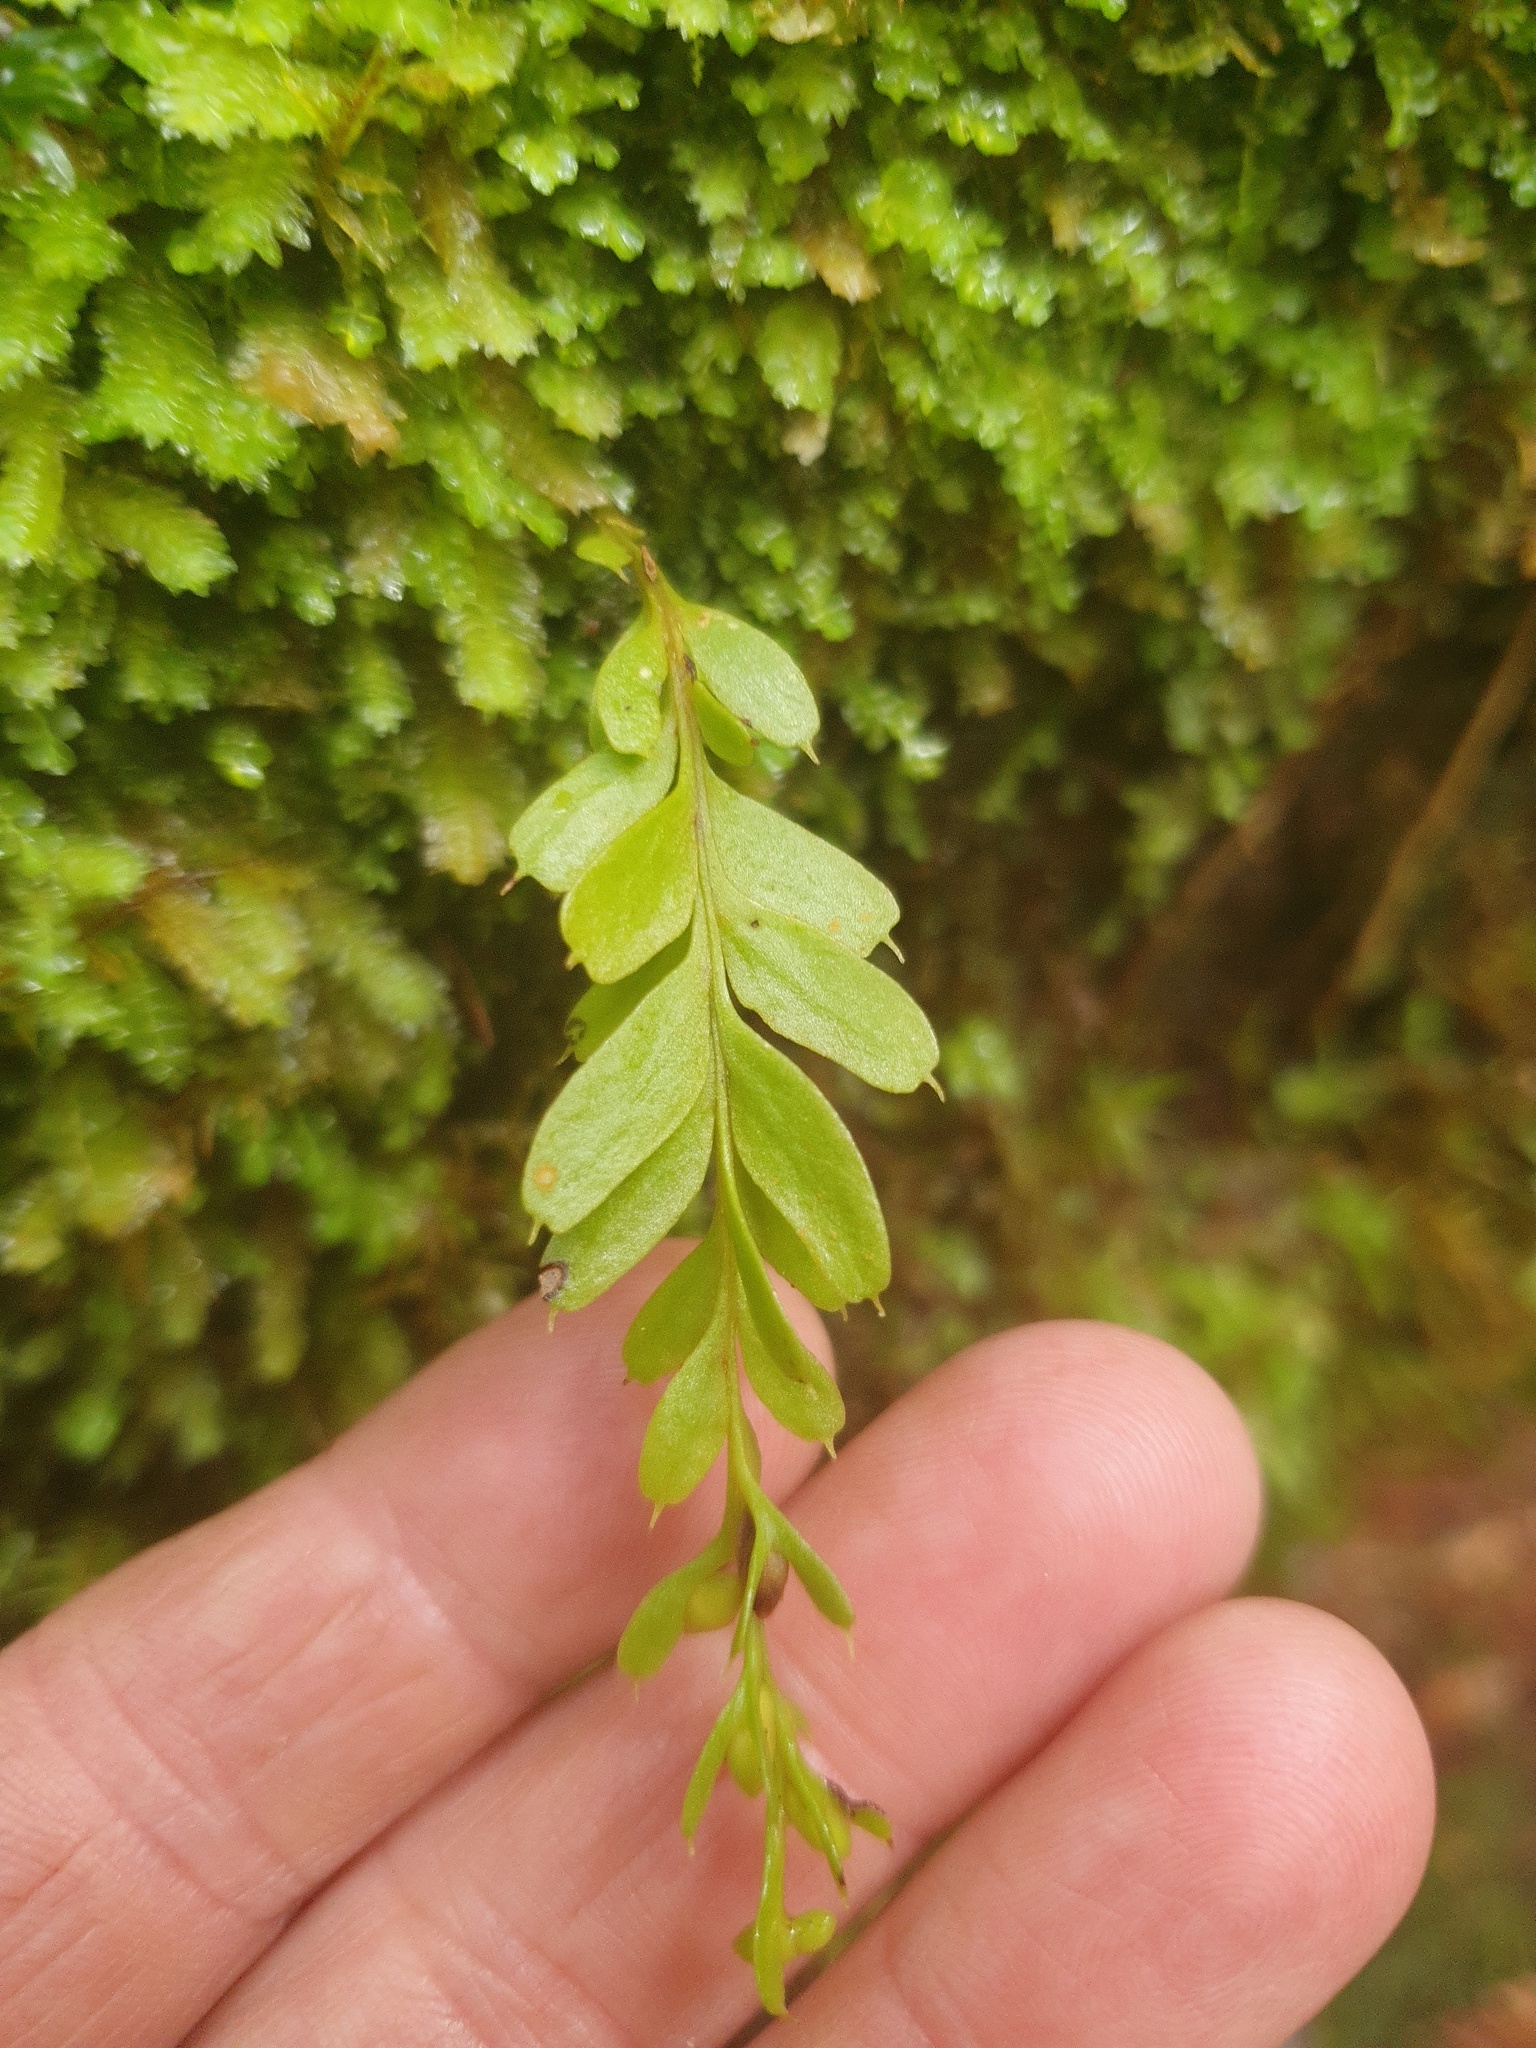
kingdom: Plantae
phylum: Tracheophyta
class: Polypodiopsida
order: Psilotales
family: Psilotaceae
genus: Tmesipteris
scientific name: Tmesipteris obliqua
